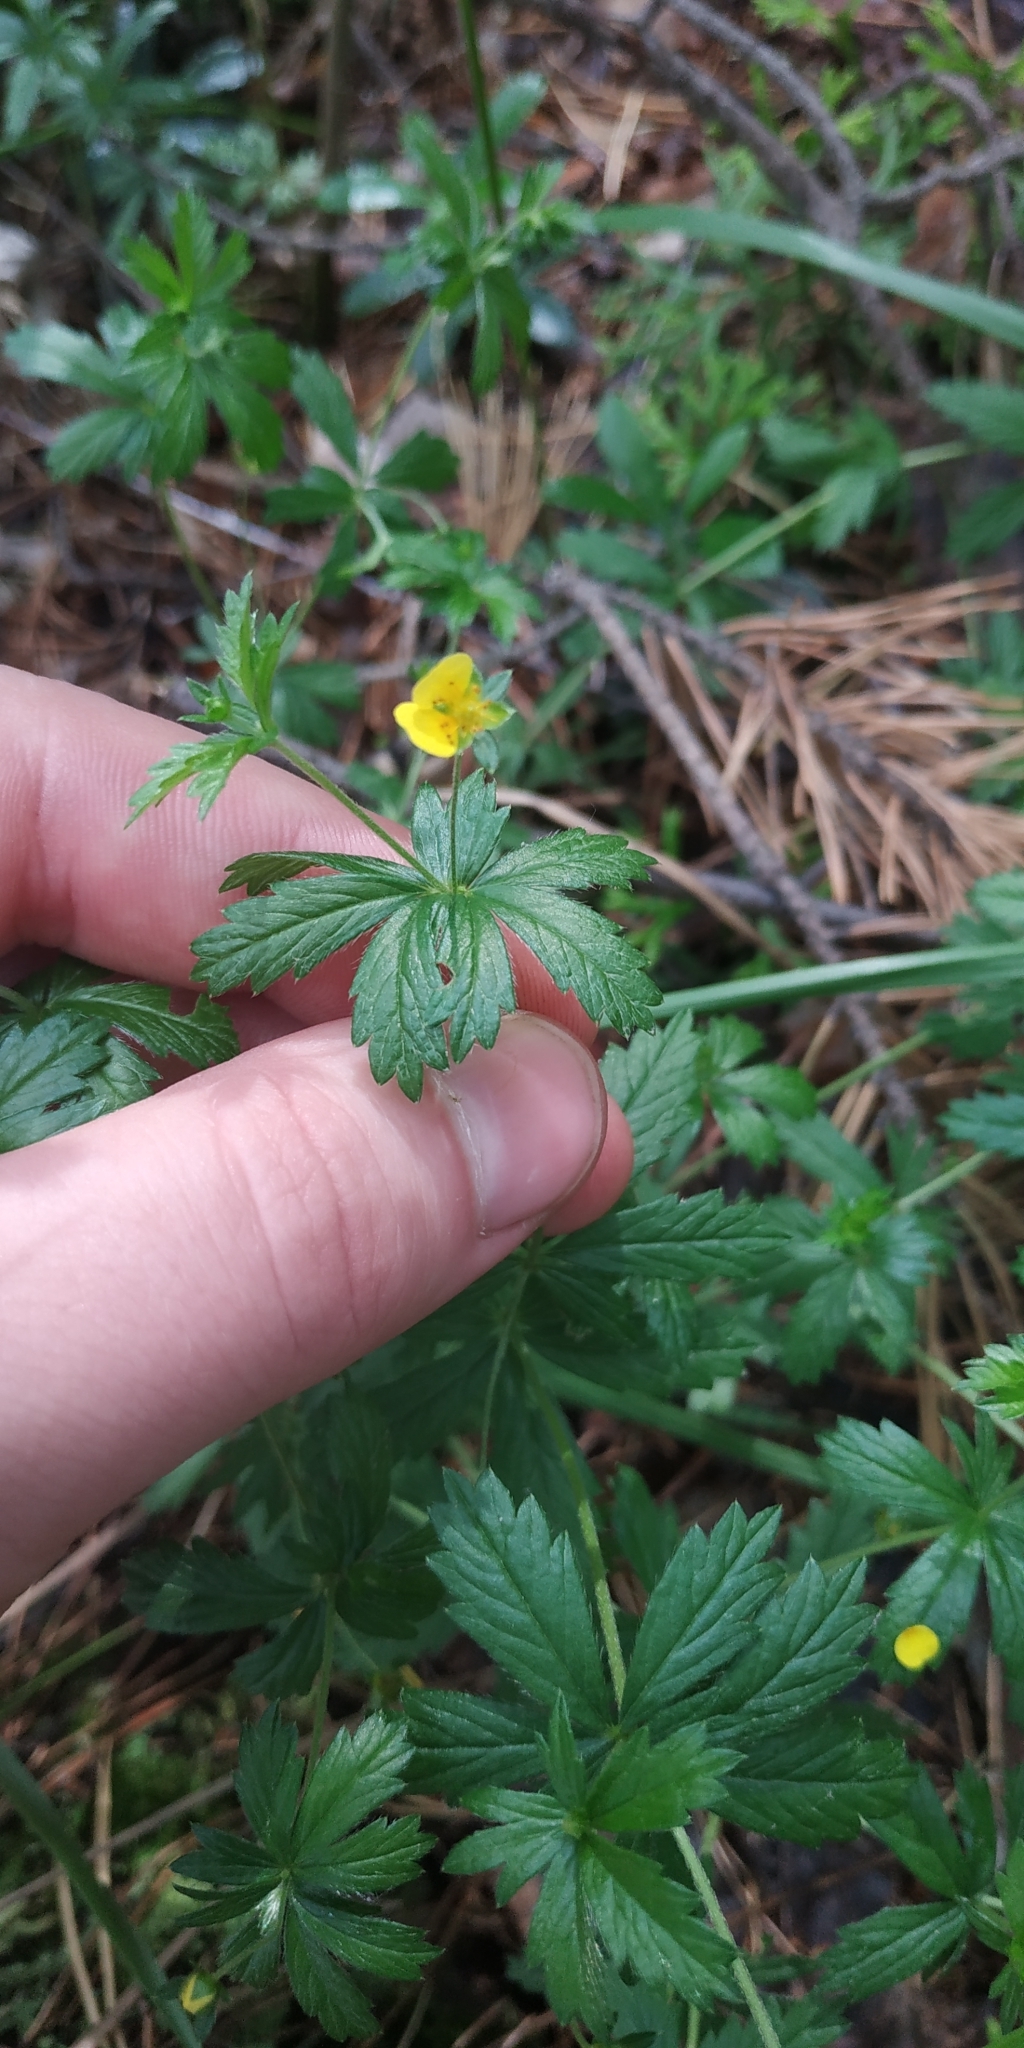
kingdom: Plantae
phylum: Tracheophyta
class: Magnoliopsida
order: Rosales
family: Rosaceae
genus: Potentilla
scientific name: Potentilla erecta
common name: Tormentil
